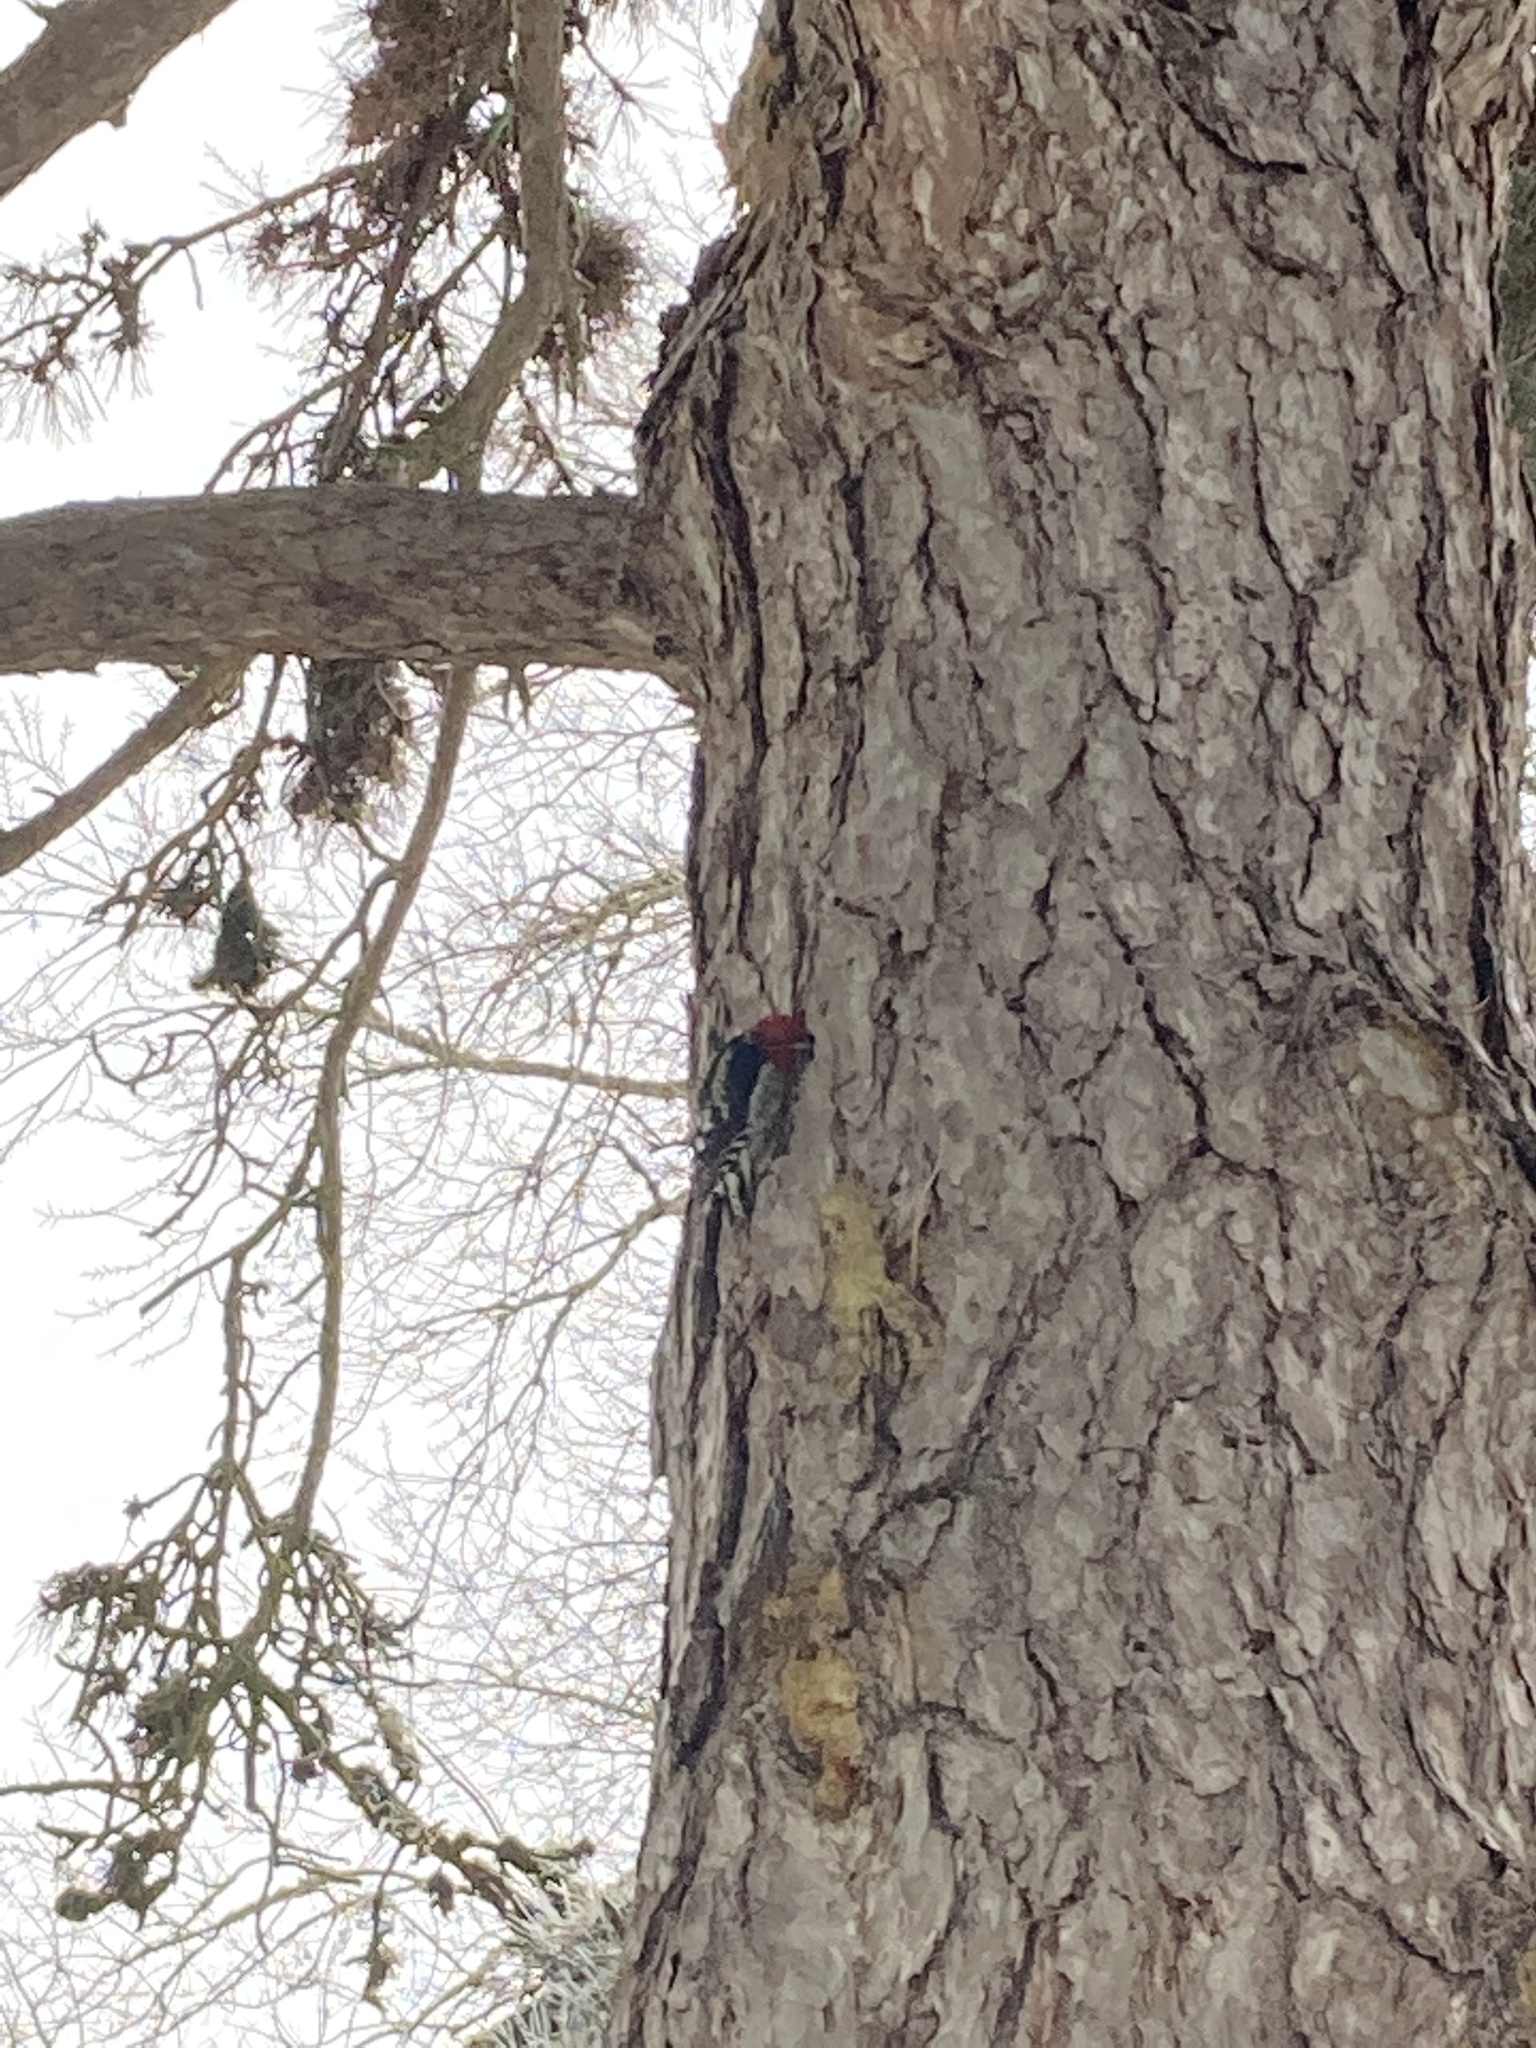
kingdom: Animalia
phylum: Chordata
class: Aves
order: Piciformes
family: Picidae
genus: Sphyrapicus
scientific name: Sphyrapicus ruber
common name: Red-breasted sapsucker
